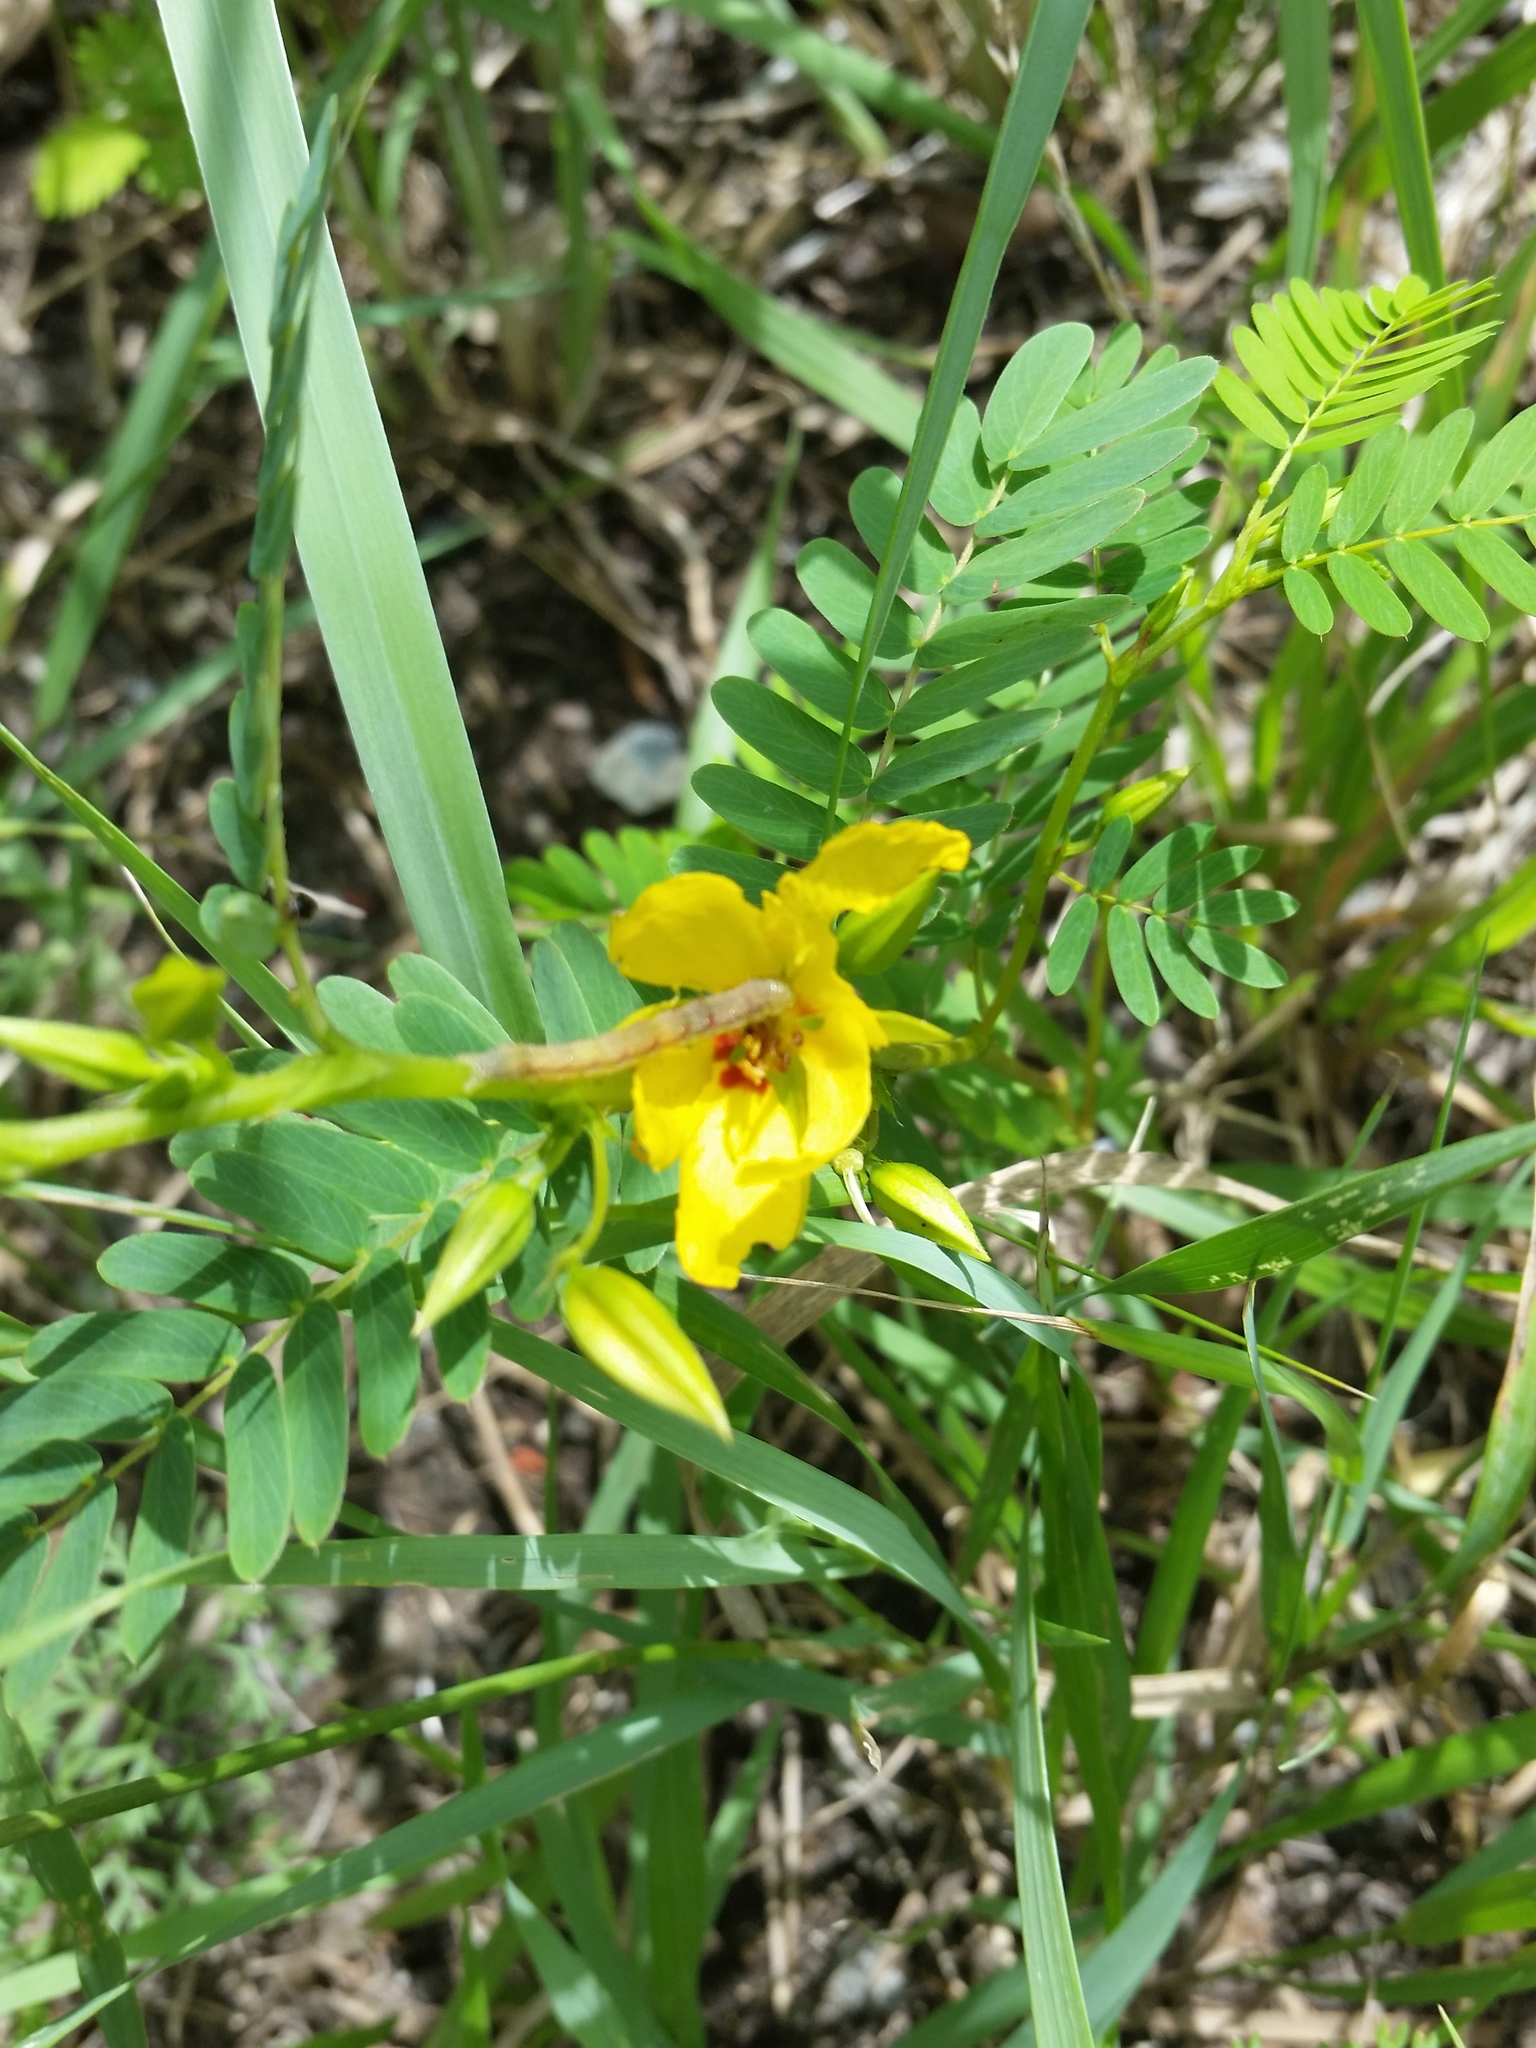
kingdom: Plantae
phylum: Tracheophyta
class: Magnoliopsida
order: Fabales
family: Fabaceae
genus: Chamaecrista
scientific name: Chamaecrista fasciculata
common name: Golden cassia
